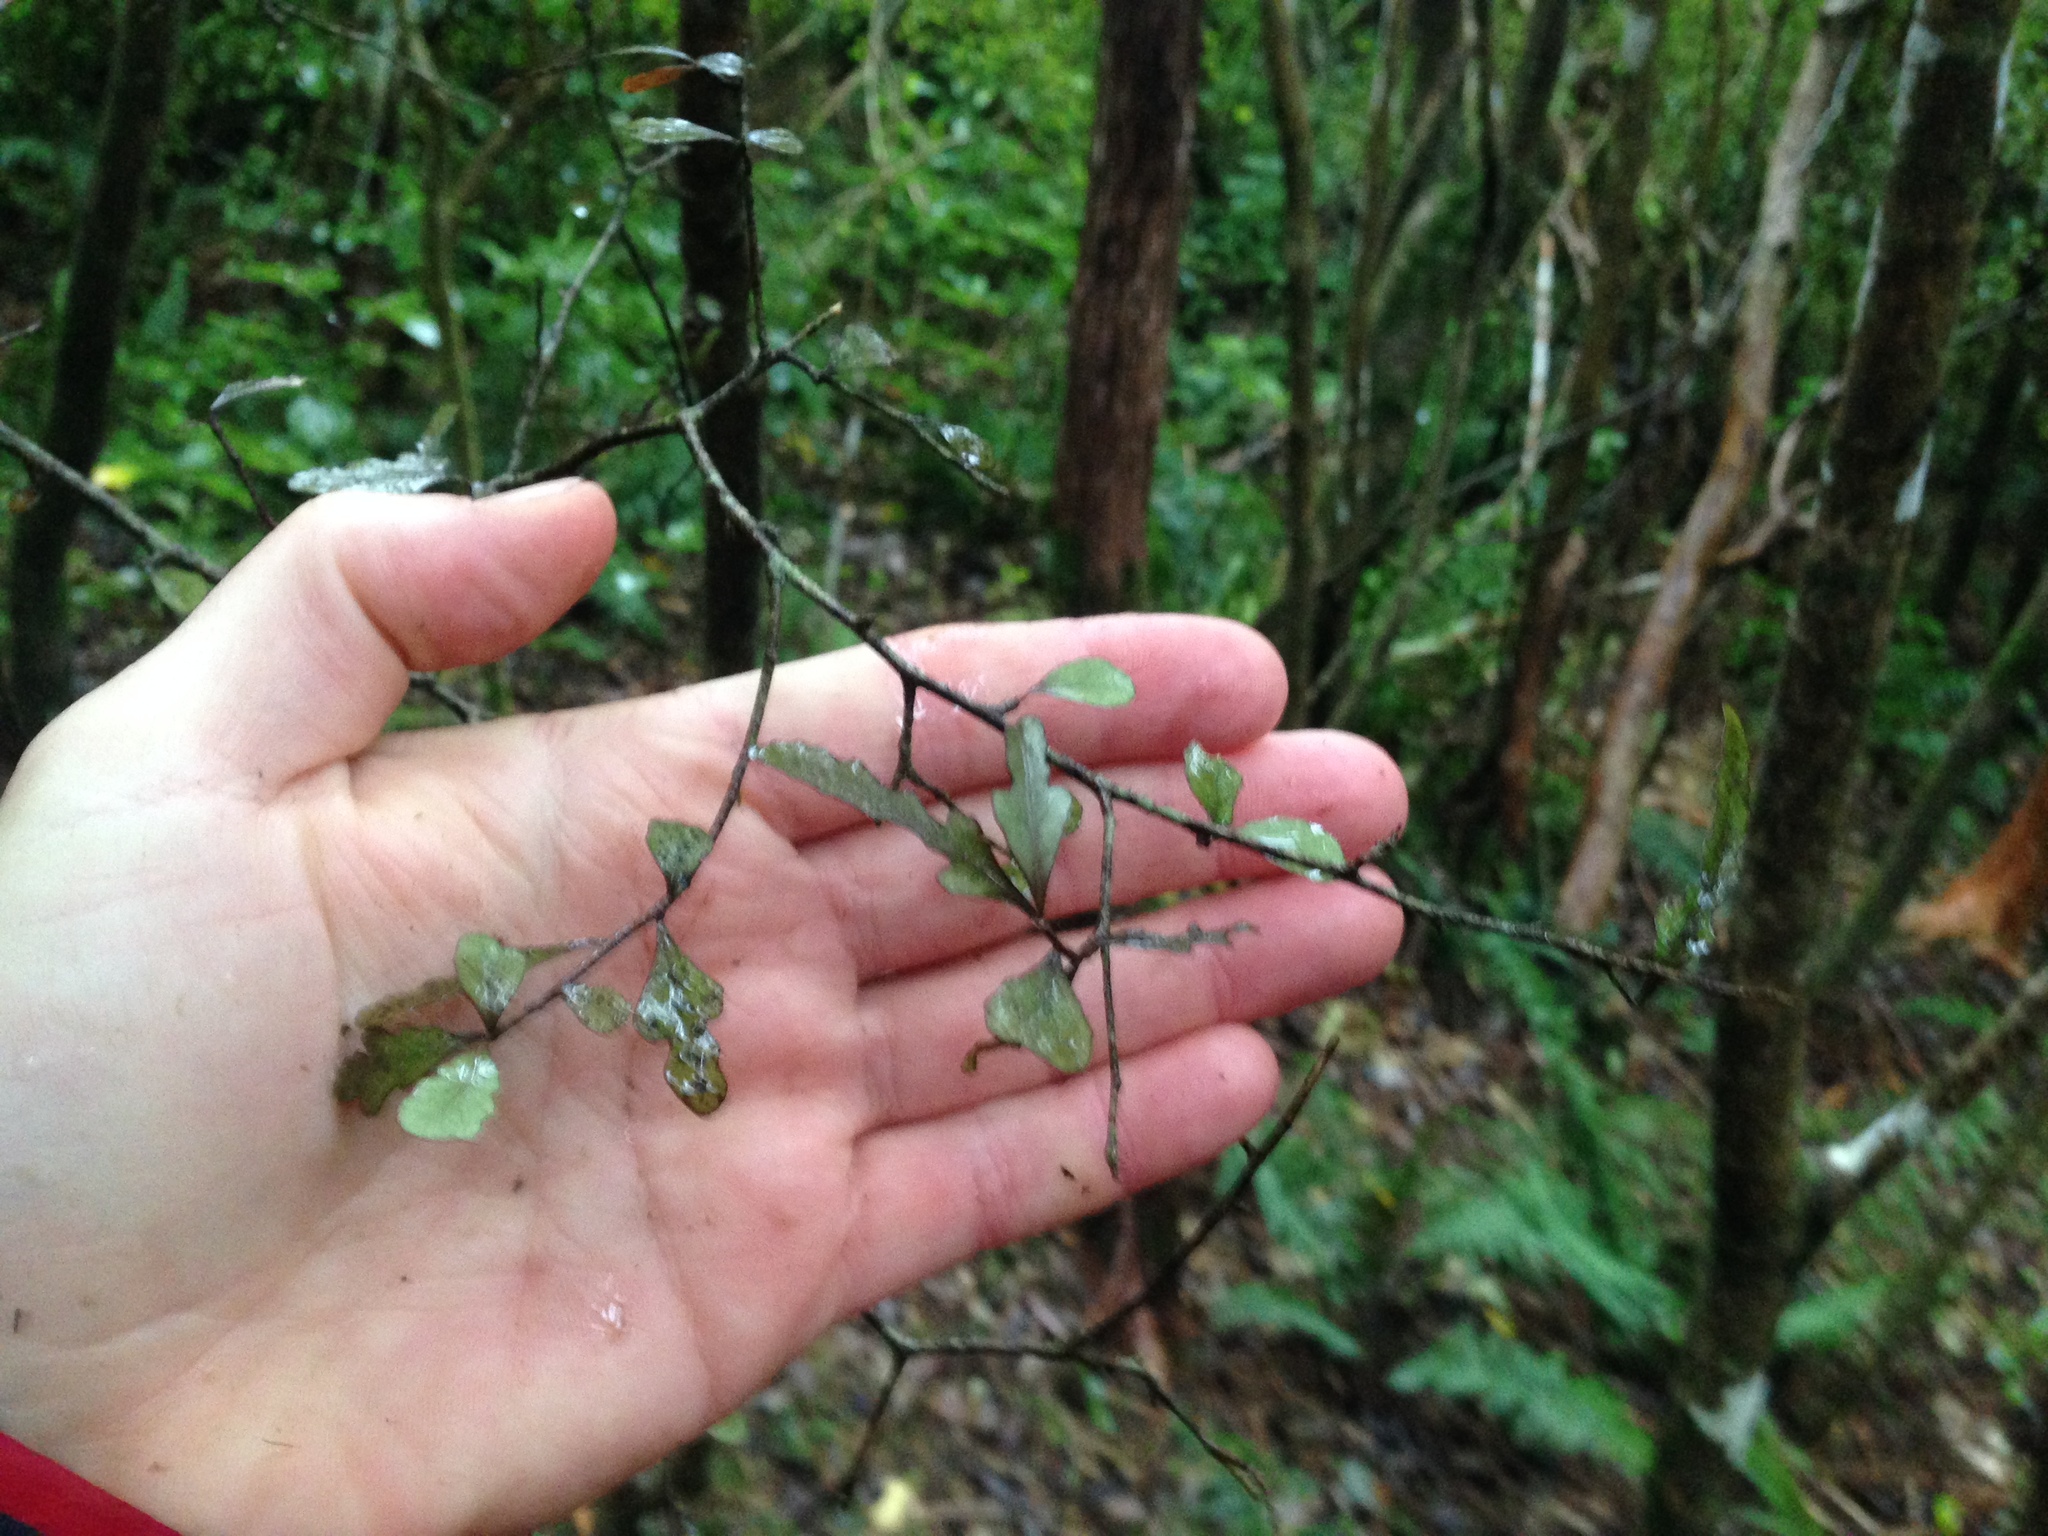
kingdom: Plantae
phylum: Tracheophyta
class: Magnoliopsida
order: Oxalidales
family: Elaeocarpaceae
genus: Elaeocarpus
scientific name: Elaeocarpus hookerianus
